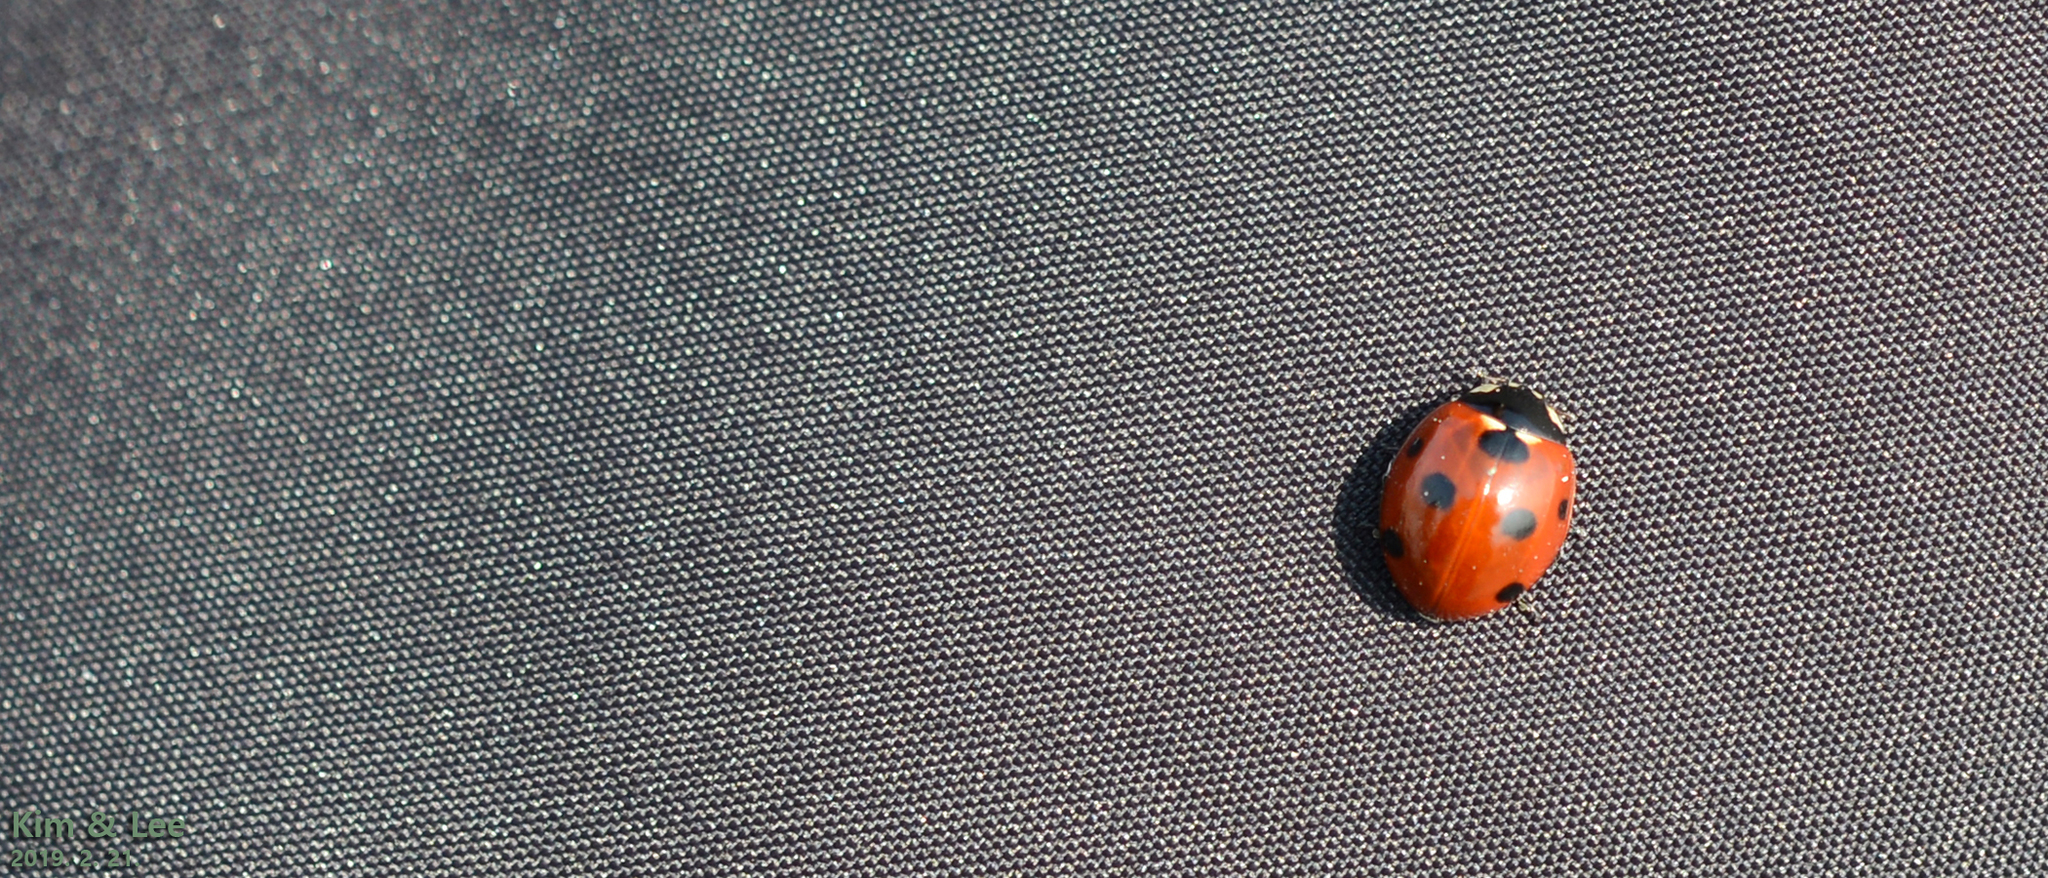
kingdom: Animalia
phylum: Arthropoda
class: Insecta
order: Coleoptera
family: Coccinellidae
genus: Coccinella
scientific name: Coccinella septempunctata
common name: Sevenspotted lady beetle
